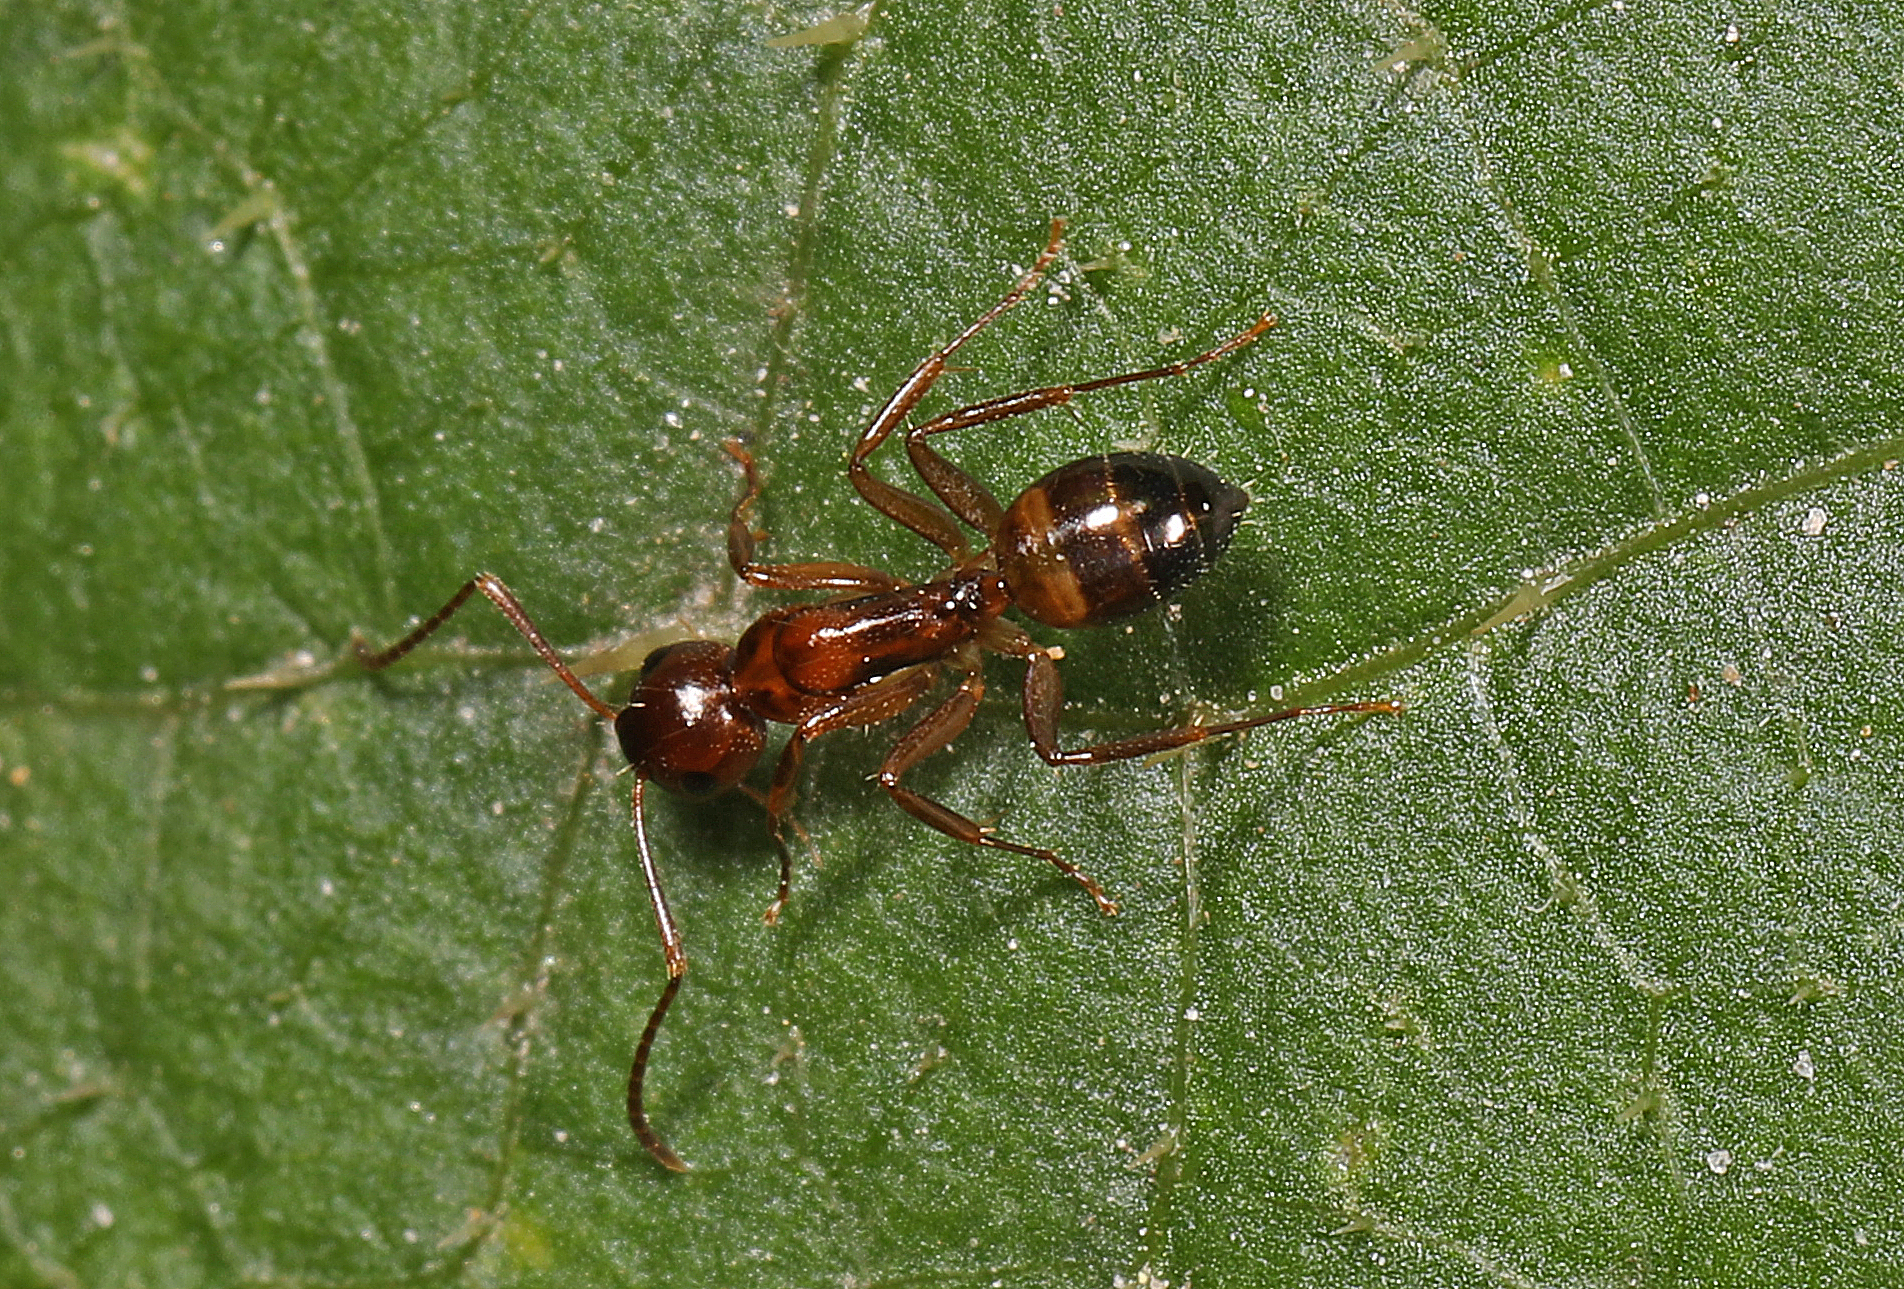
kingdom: Animalia
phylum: Arthropoda
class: Insecta
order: Hymenoptera
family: Formicidae
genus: Camponotus
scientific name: Camponotus subbarbatus
